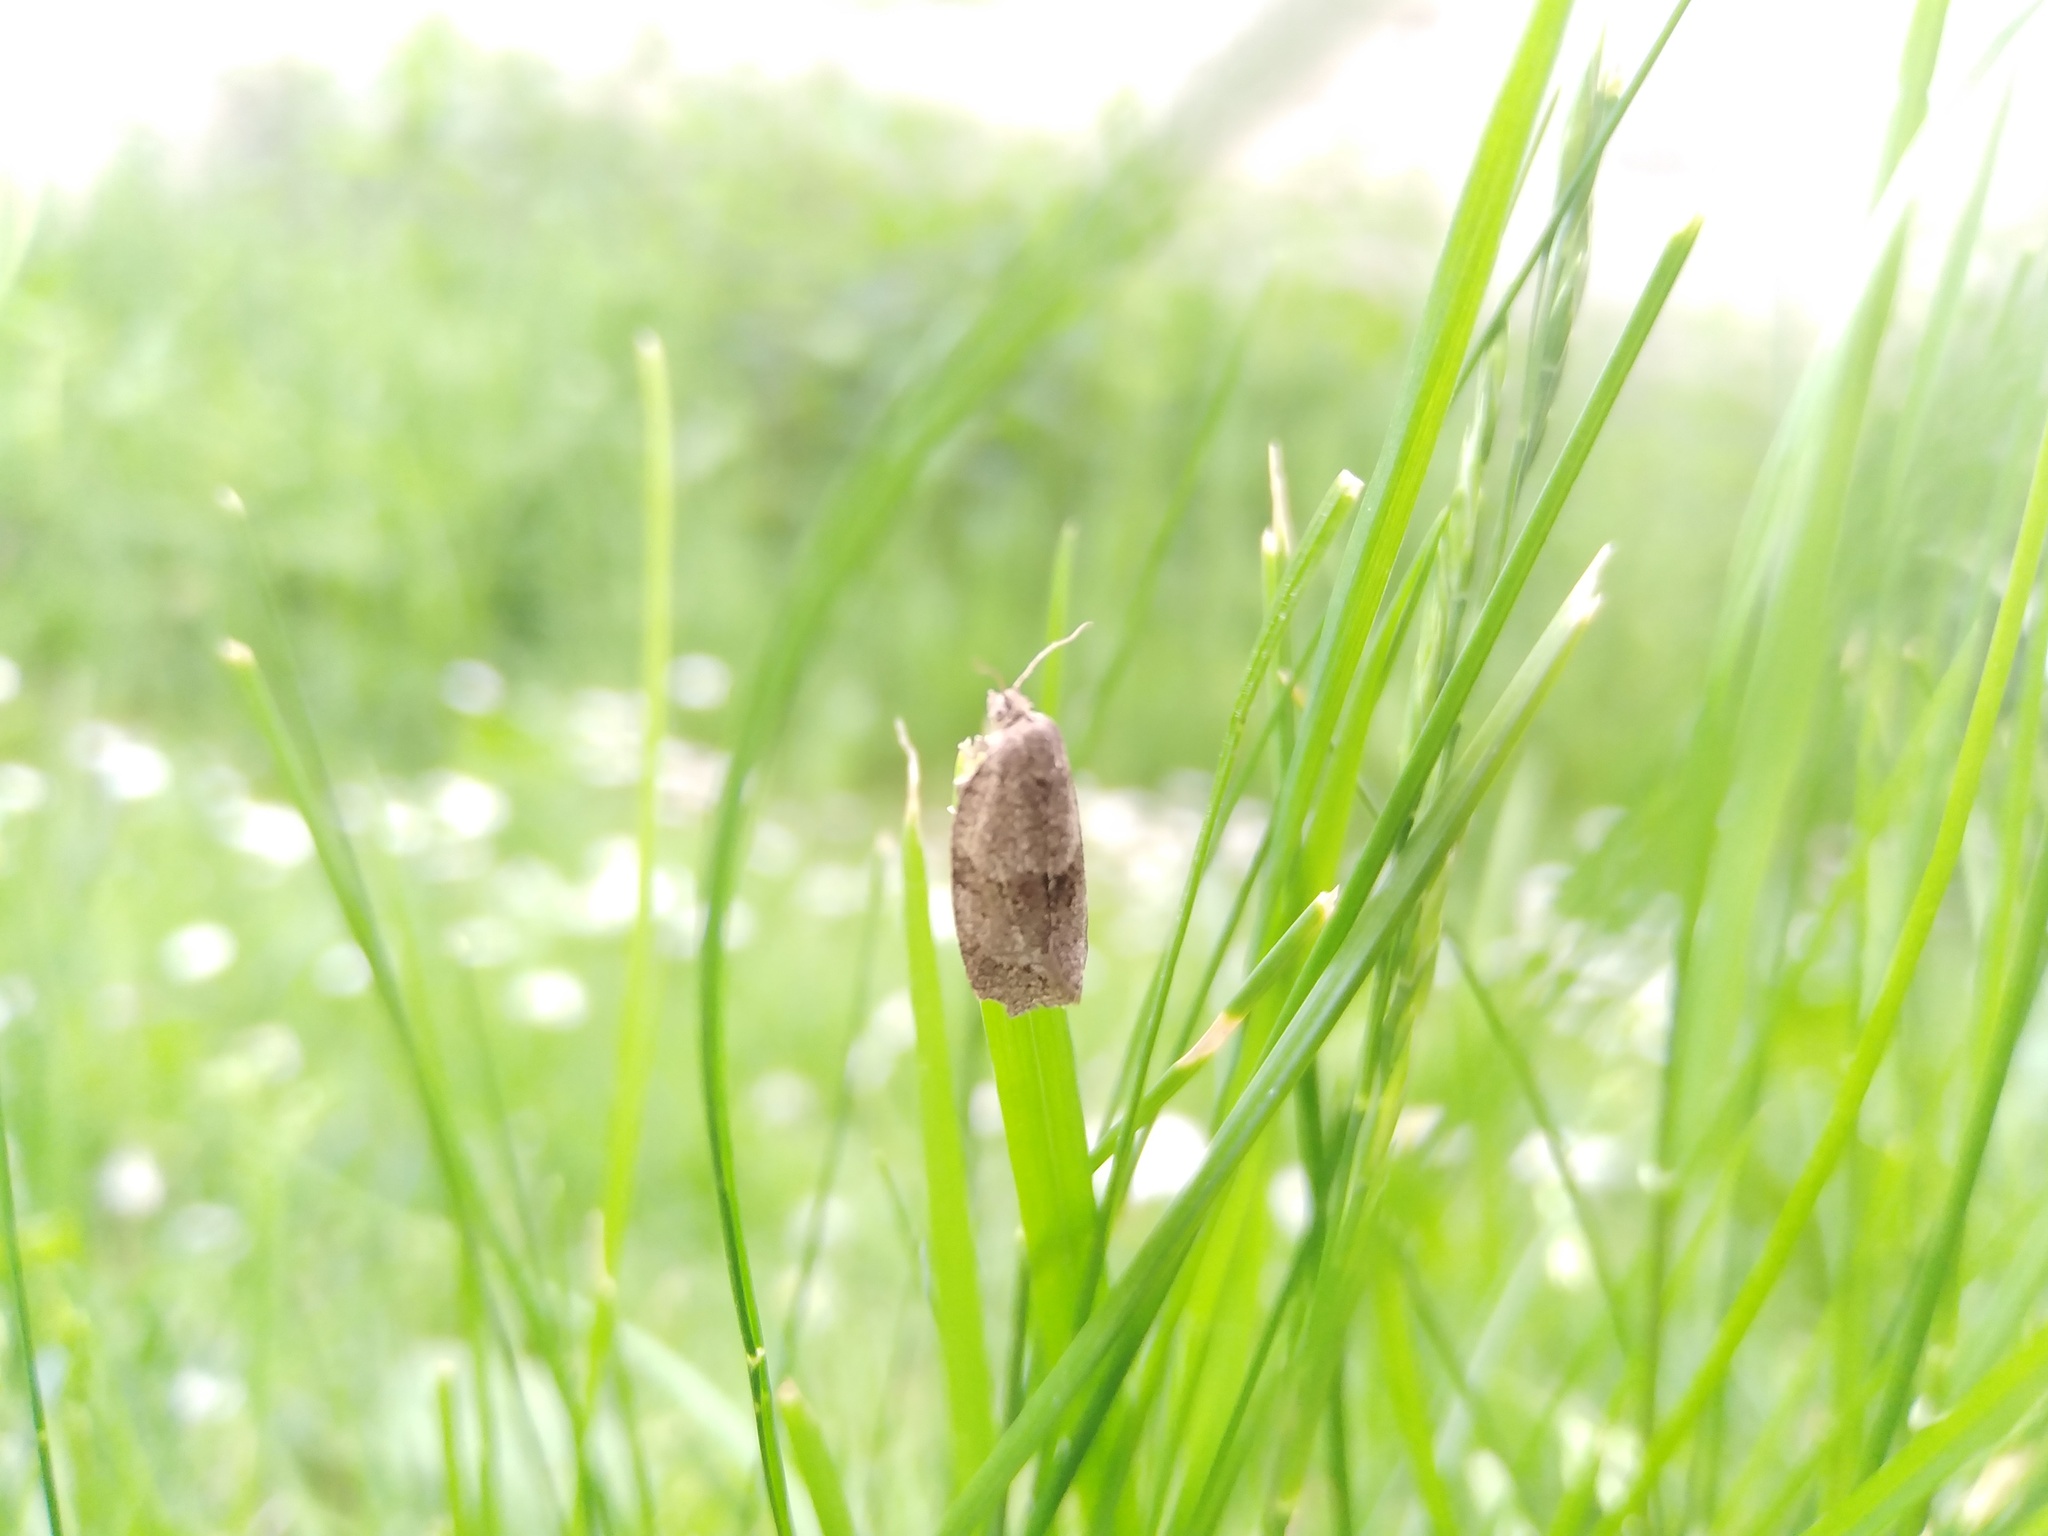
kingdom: Animalia
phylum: Arthropoda
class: Insecta
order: Lepidoptera
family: Tortricidae
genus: Celypha
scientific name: Celypha striana
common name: Barred marble
